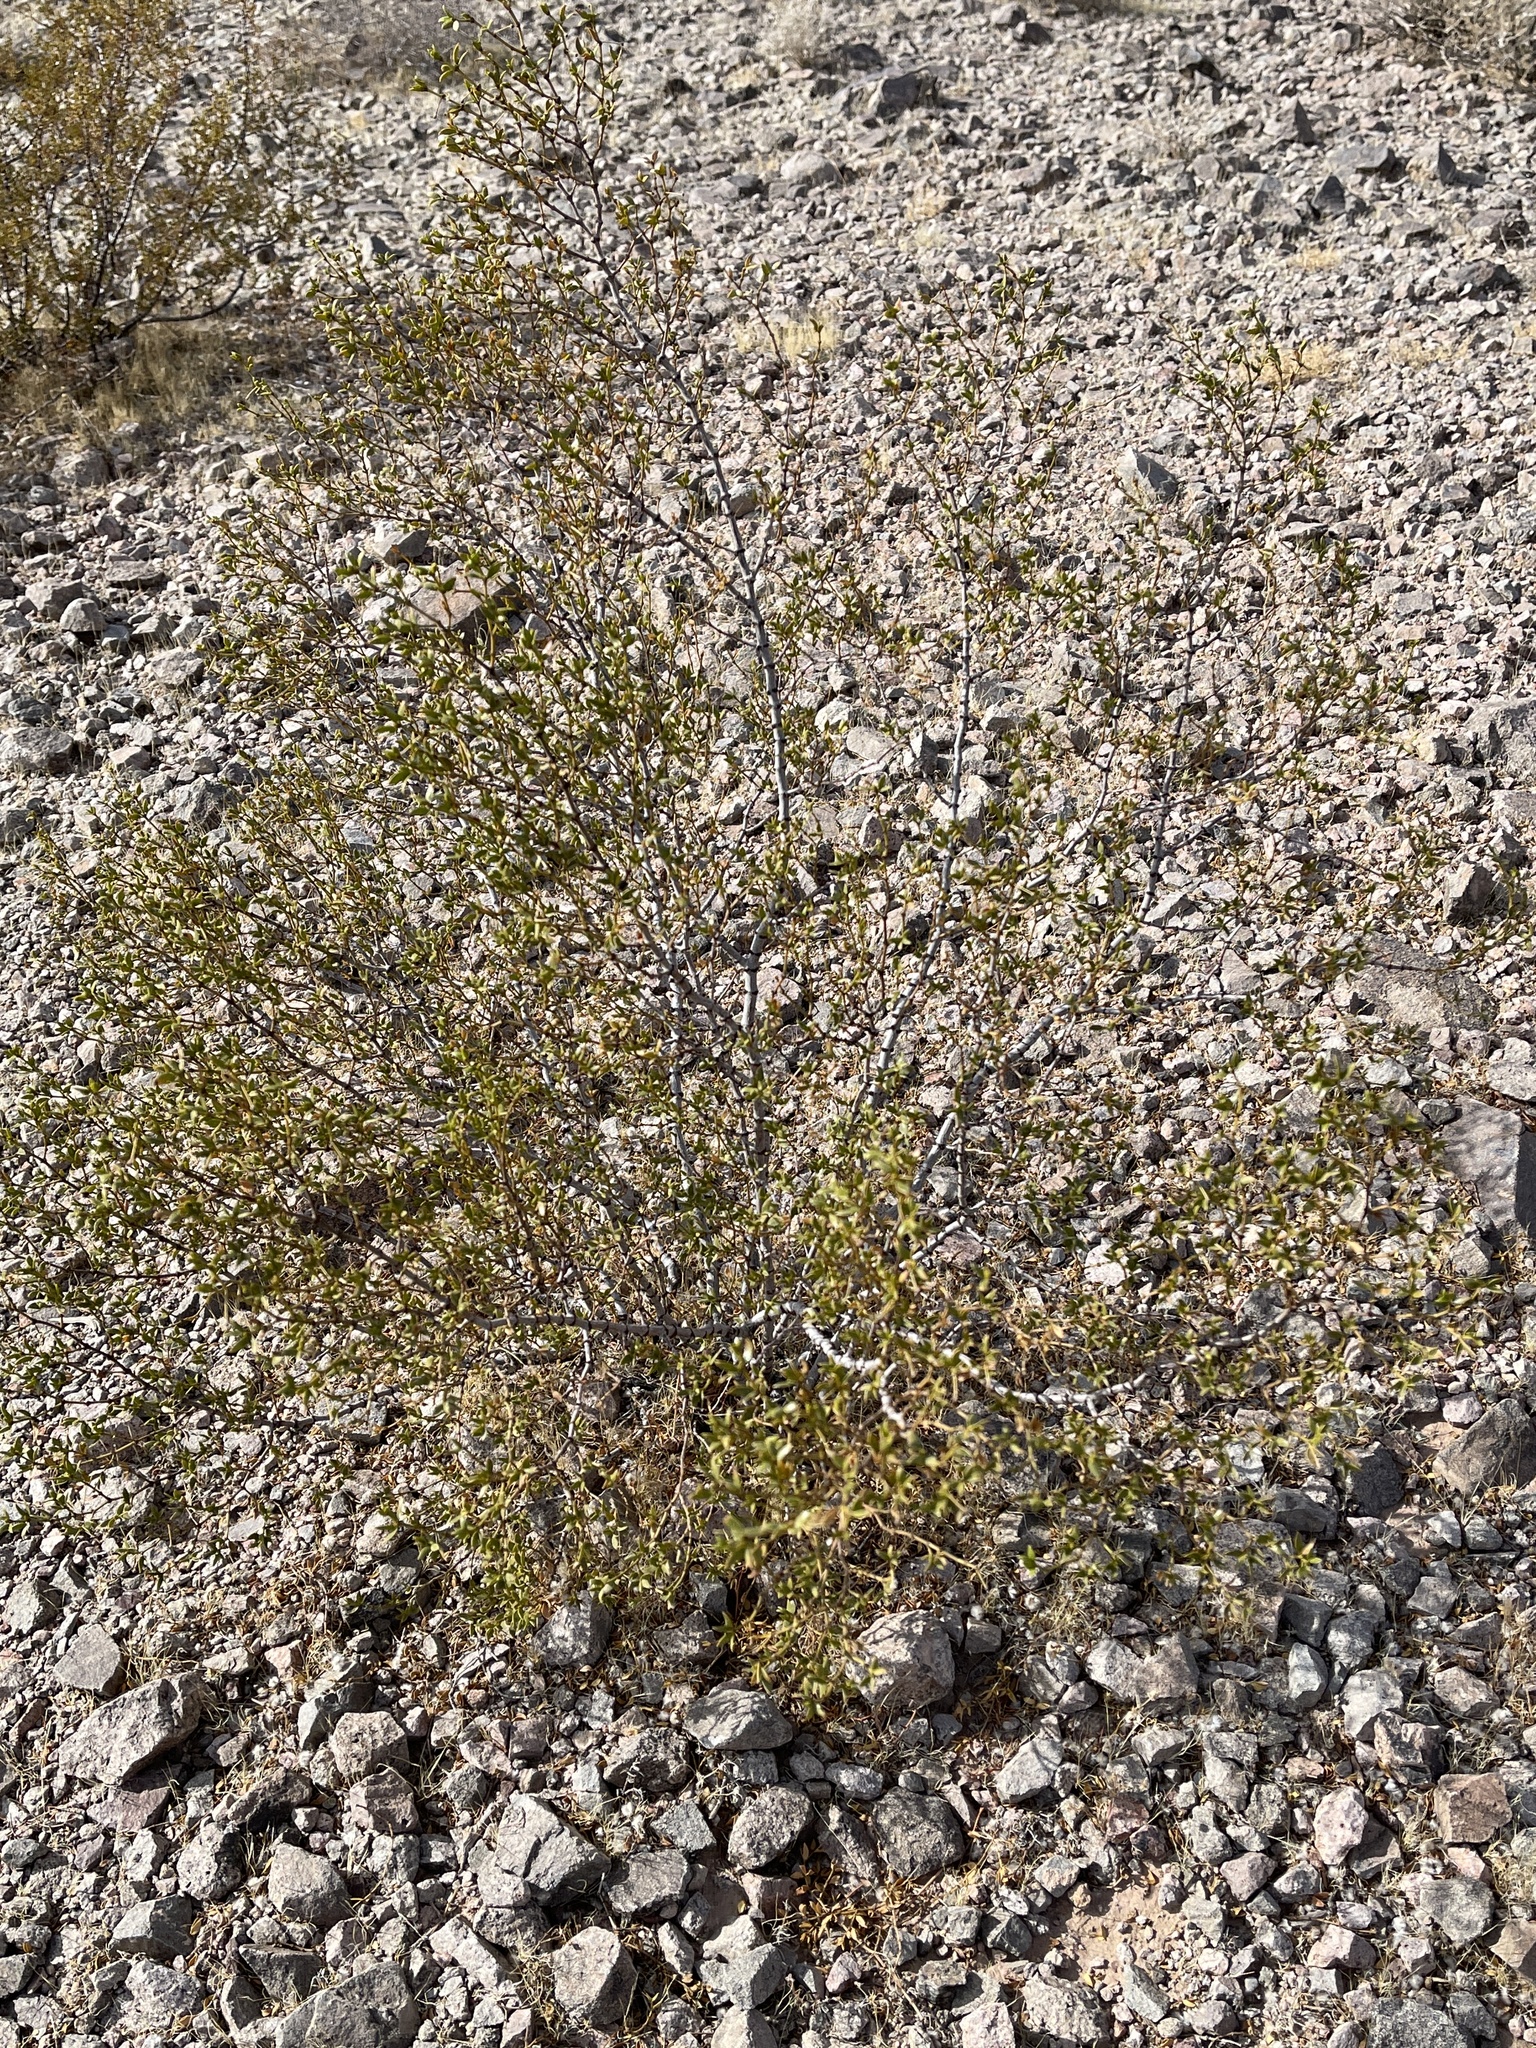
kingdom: Plantae
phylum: Tracheophyta
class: Magnoliopsida
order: Zygophyllales
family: Zygophyllaceae
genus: Larrea
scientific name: Larrea tridentata
